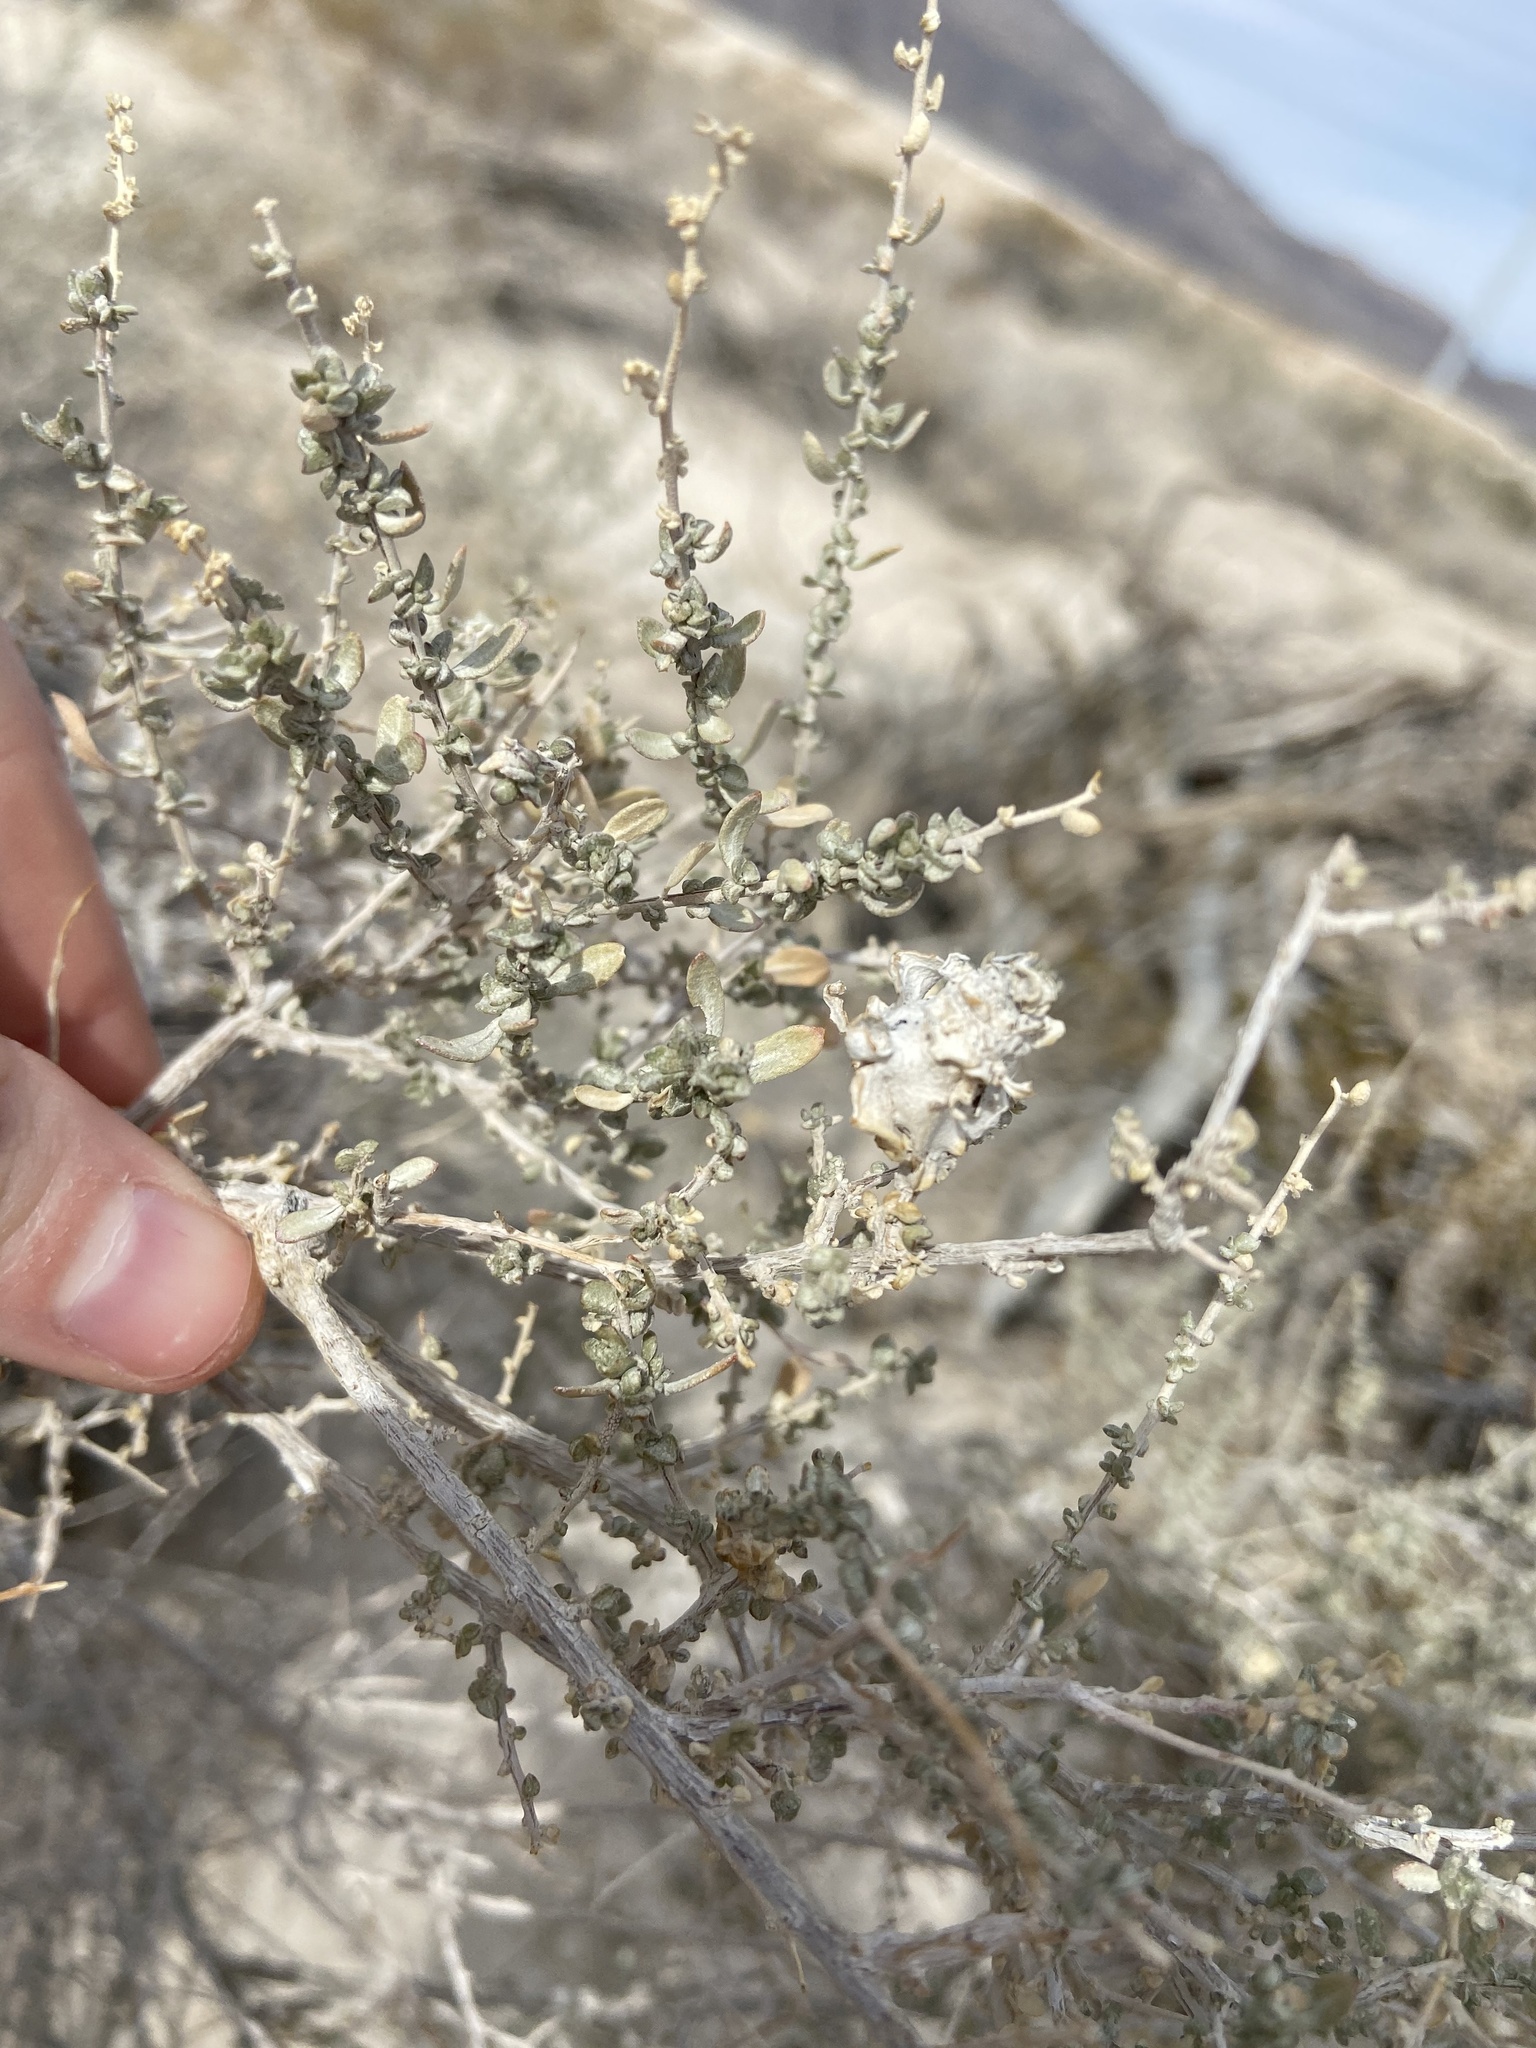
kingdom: Animalia
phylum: Arthropoda
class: Insecta
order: Diptera
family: Cecidomyiidae
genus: Asphondylia
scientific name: Asphondylia floccosa
